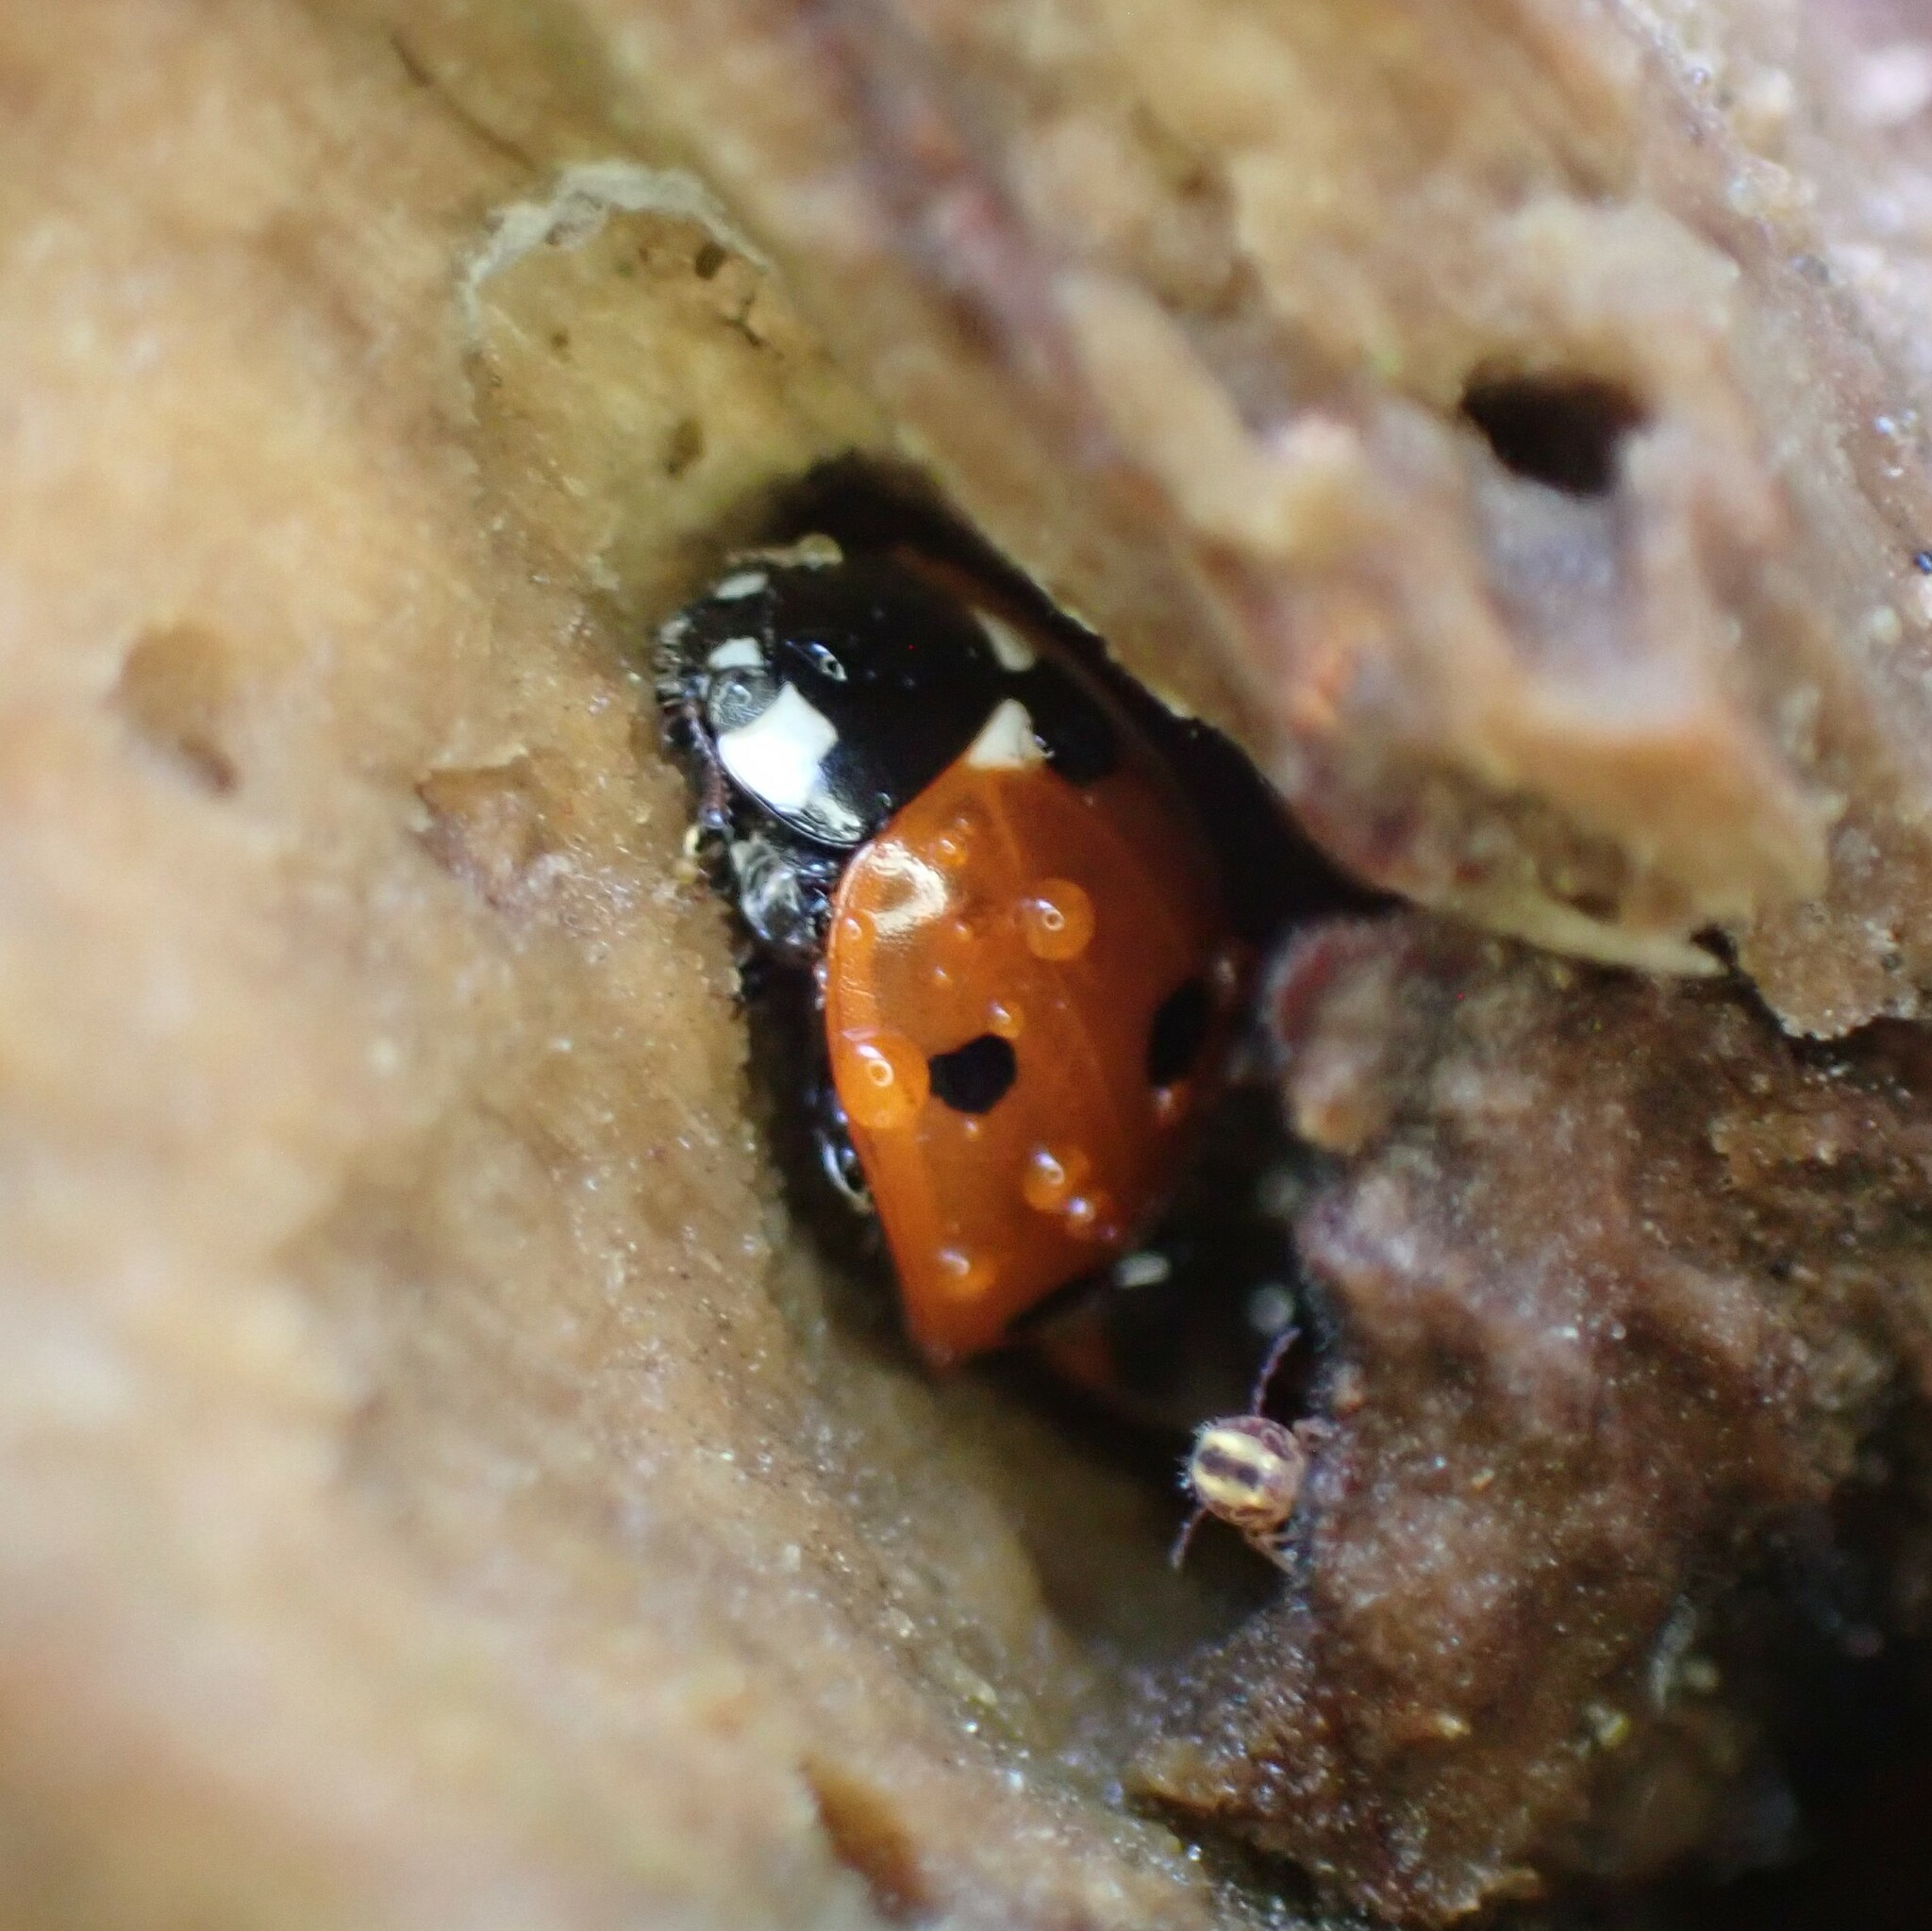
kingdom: Animalia
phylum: Arthropoda
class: Insecta
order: Coleoptera
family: Coccinellidae
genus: Coccinella
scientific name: Coccinella septempunctata
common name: Sevenspotted lady beetle
